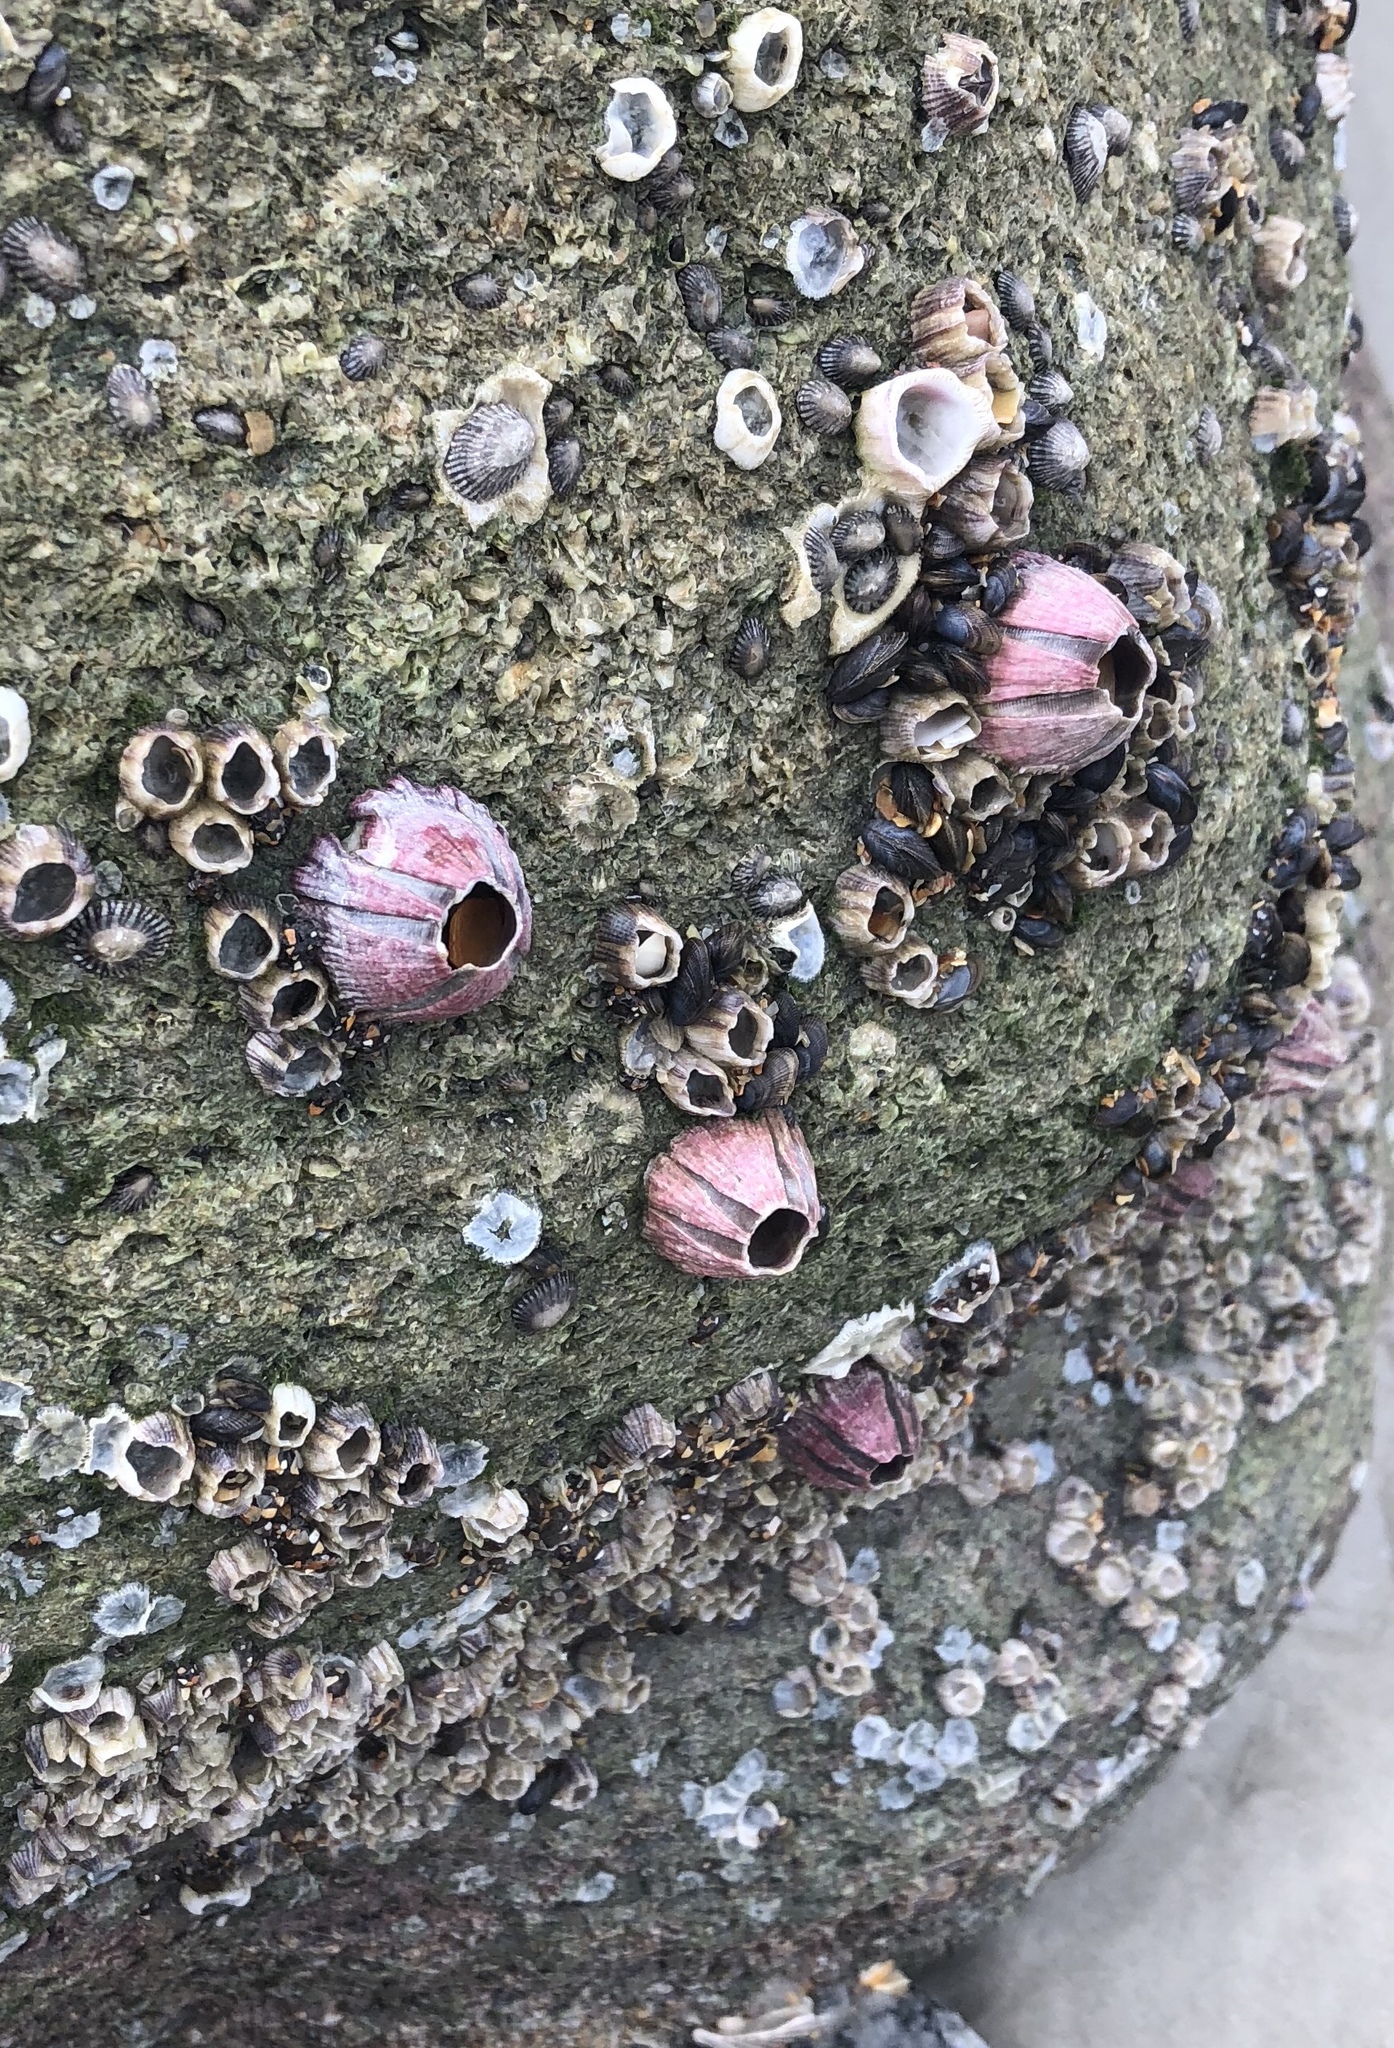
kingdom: Animalia
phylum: Arthropoda
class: Maxillopoda
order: Sessilia
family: Balanidae
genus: Megabalanus
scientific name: Megabalanus coccopoma
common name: Titan acorn barnacle
